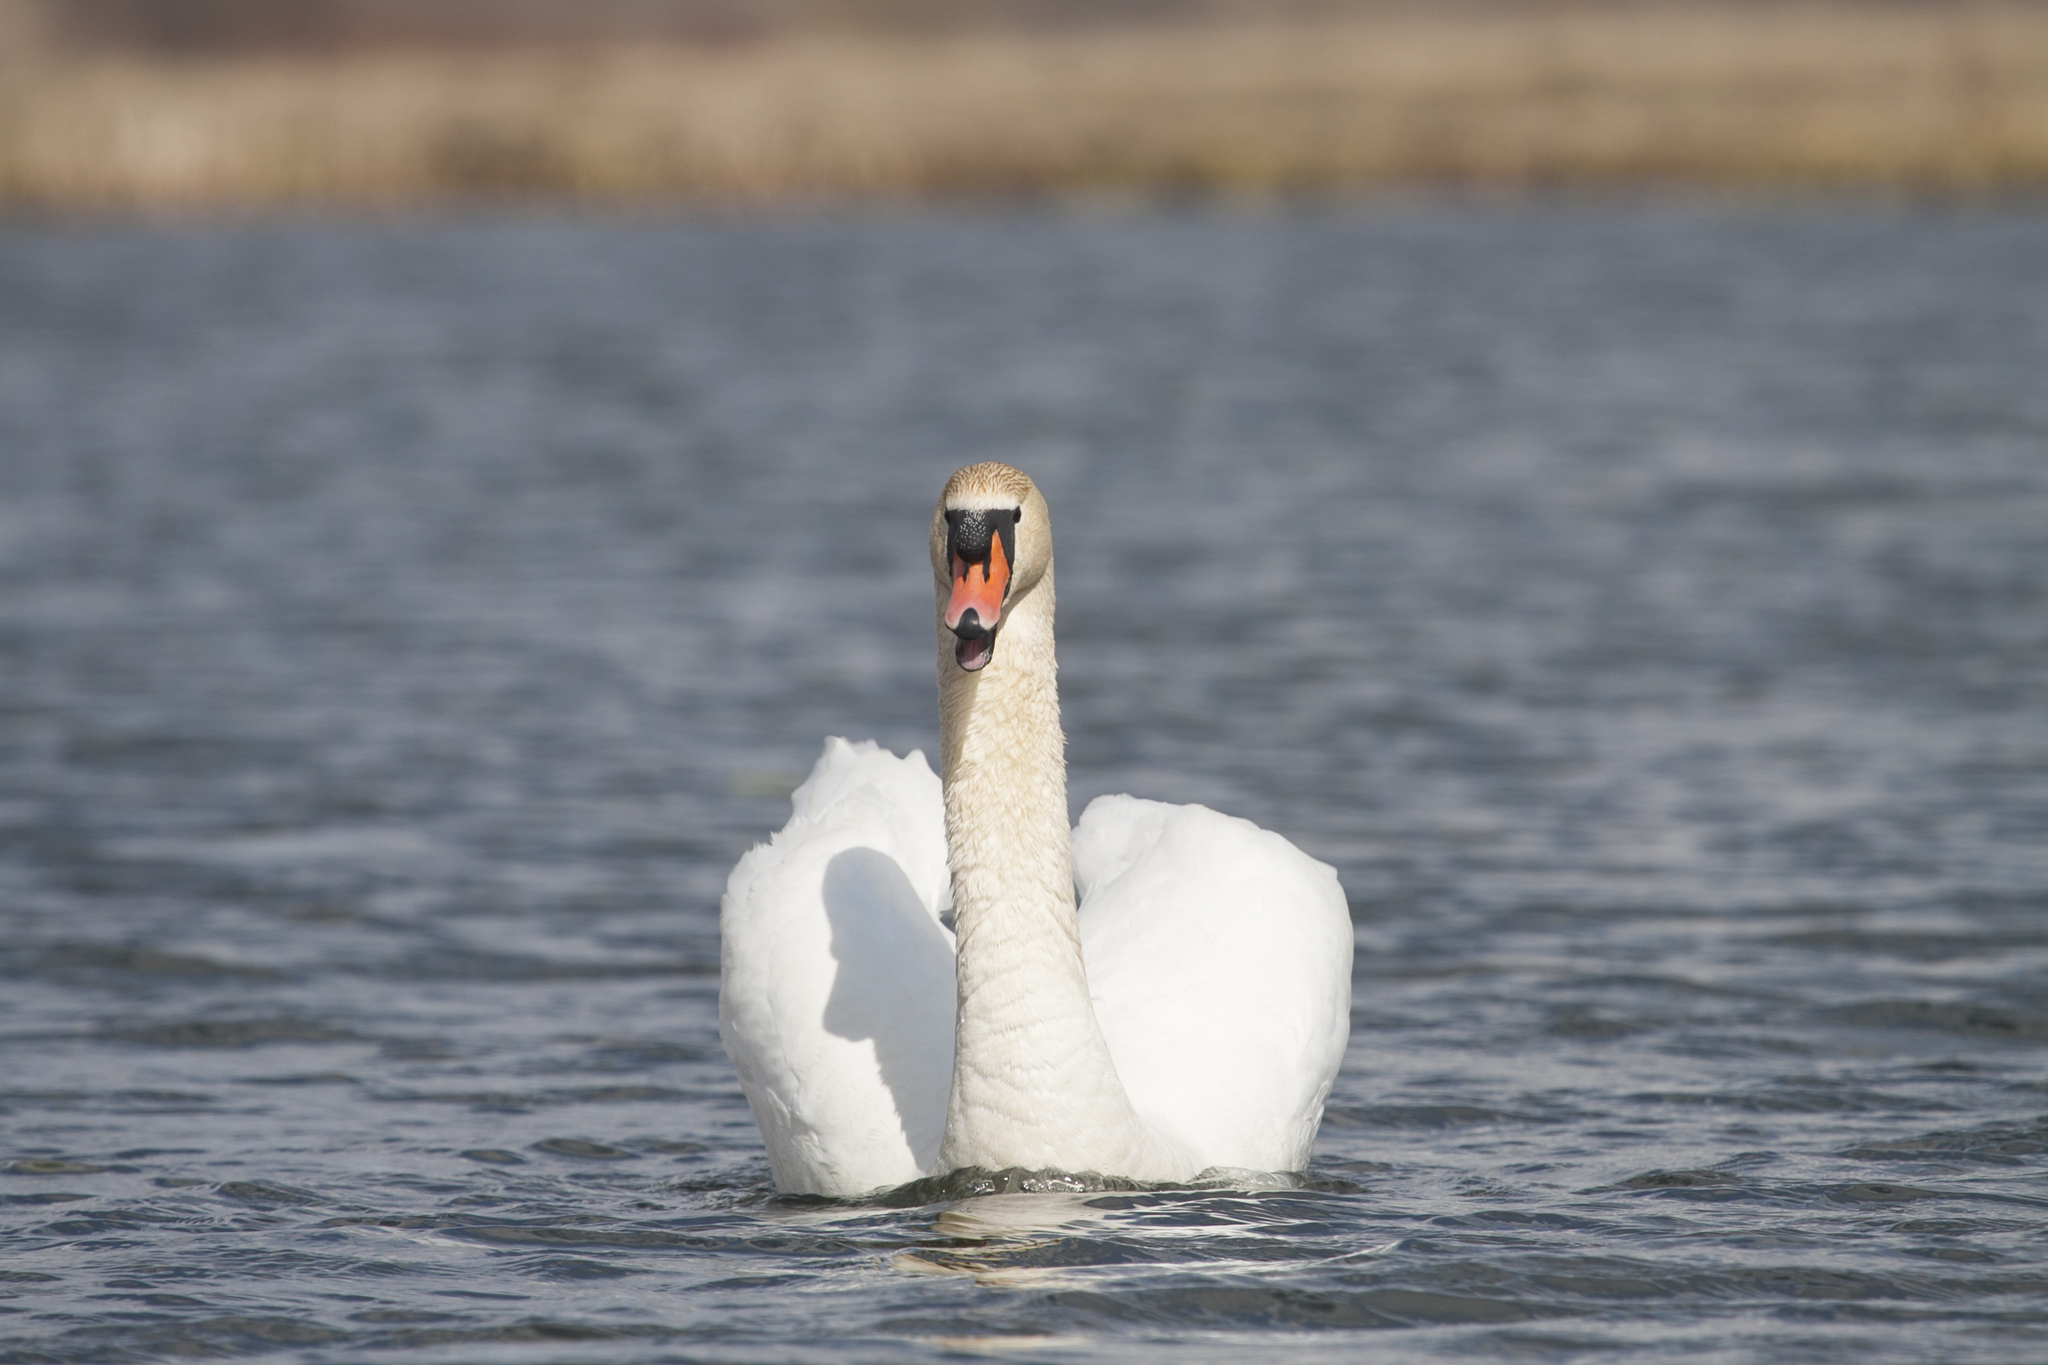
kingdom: Animalia
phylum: Chordata
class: Aves
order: Anseriformes
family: Anatidae
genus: Cygnus
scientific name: Cygnus olor
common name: Mute swan
